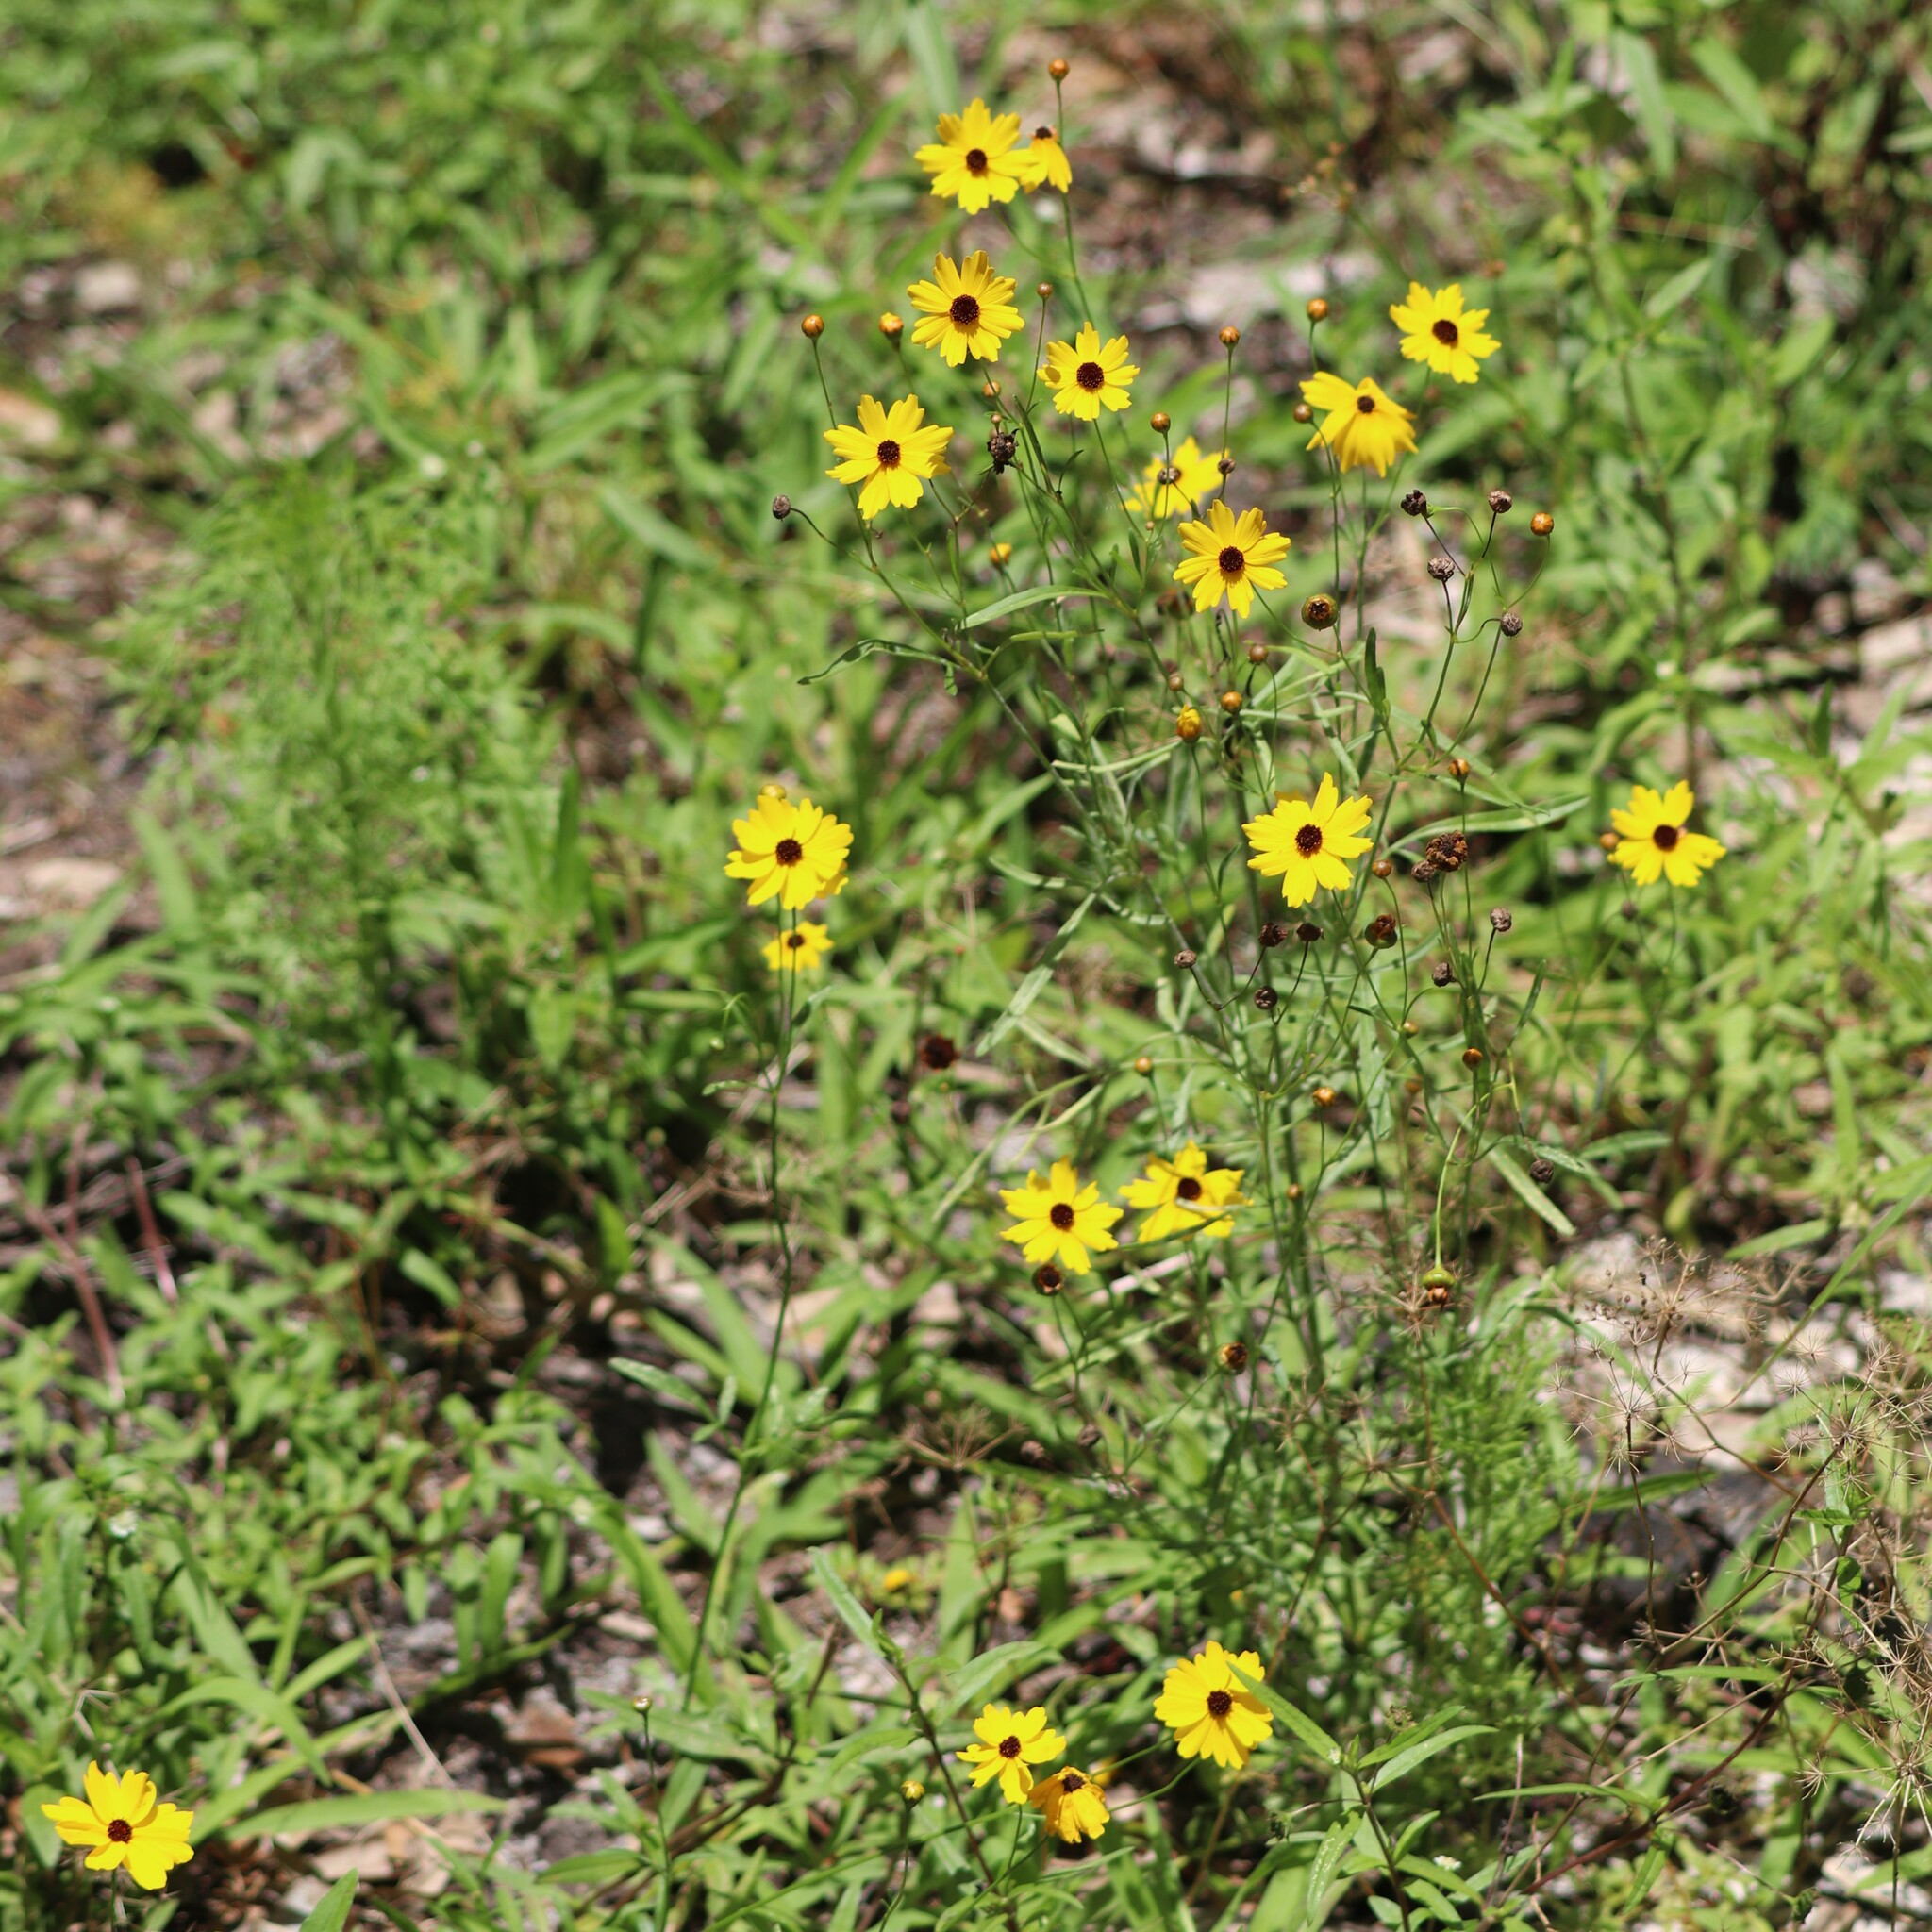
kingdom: Plantae
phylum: Tracheophyta
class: Magnoliopsida
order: Asterales
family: Asteraceae
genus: Coreopsis
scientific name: Coreopsis leavenworthii
